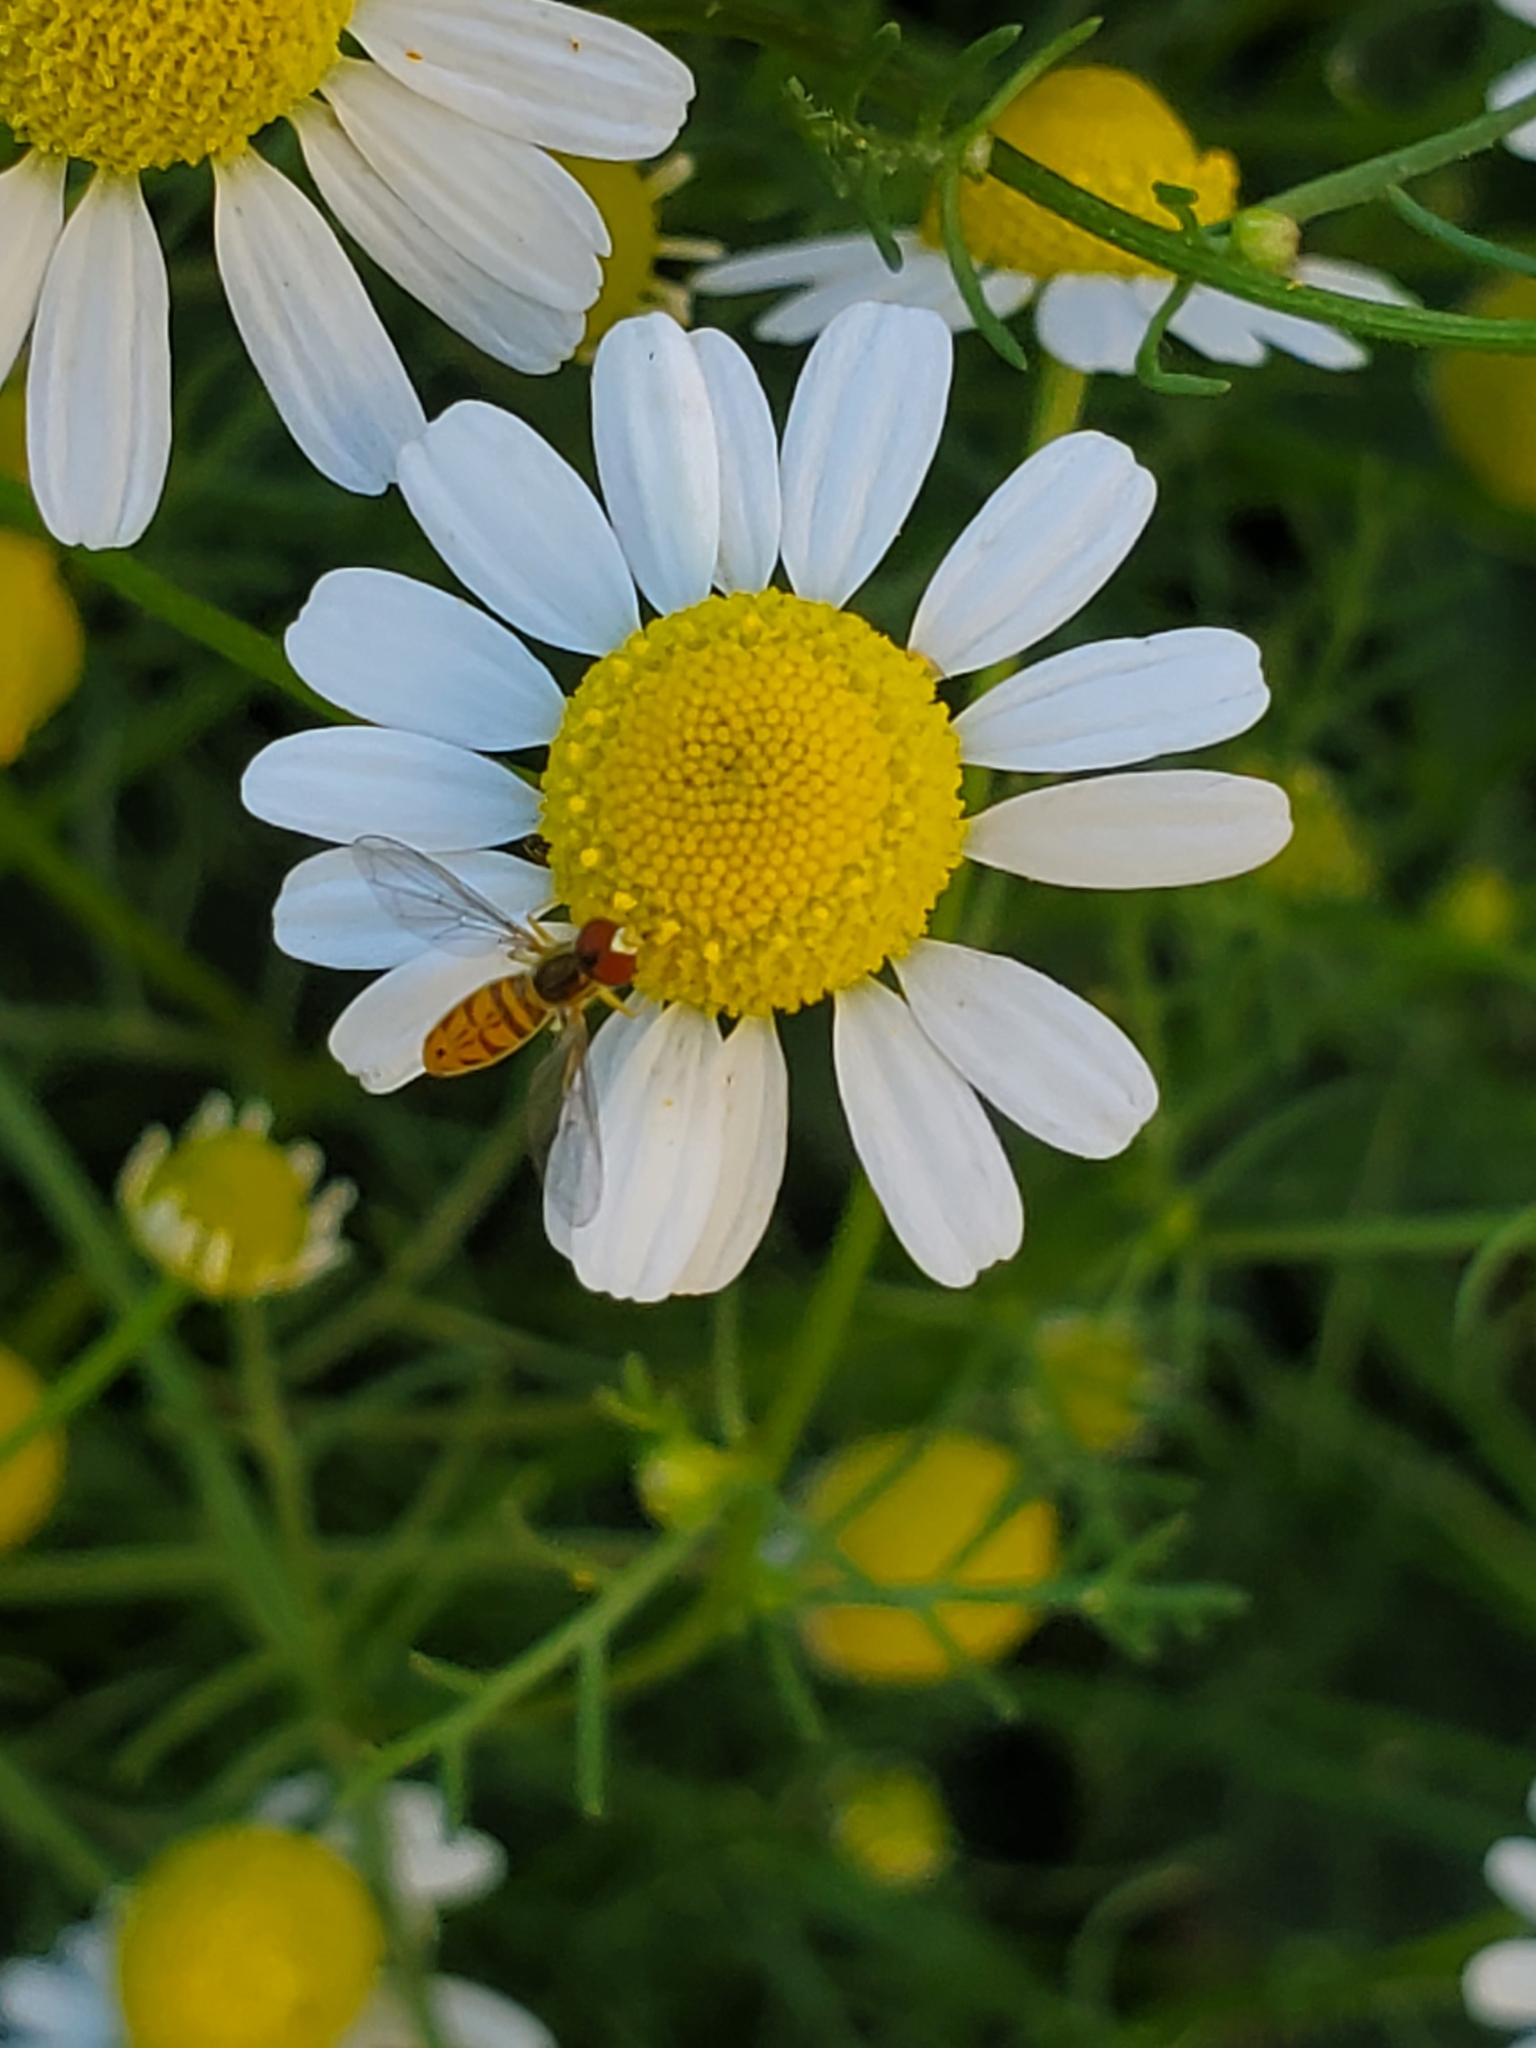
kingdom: Animalia
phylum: Arthropoda
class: Insecta
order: Diptera
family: Syrphidae
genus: Toxomerus
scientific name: Toxomerus marginatus
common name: Syrphid fly
